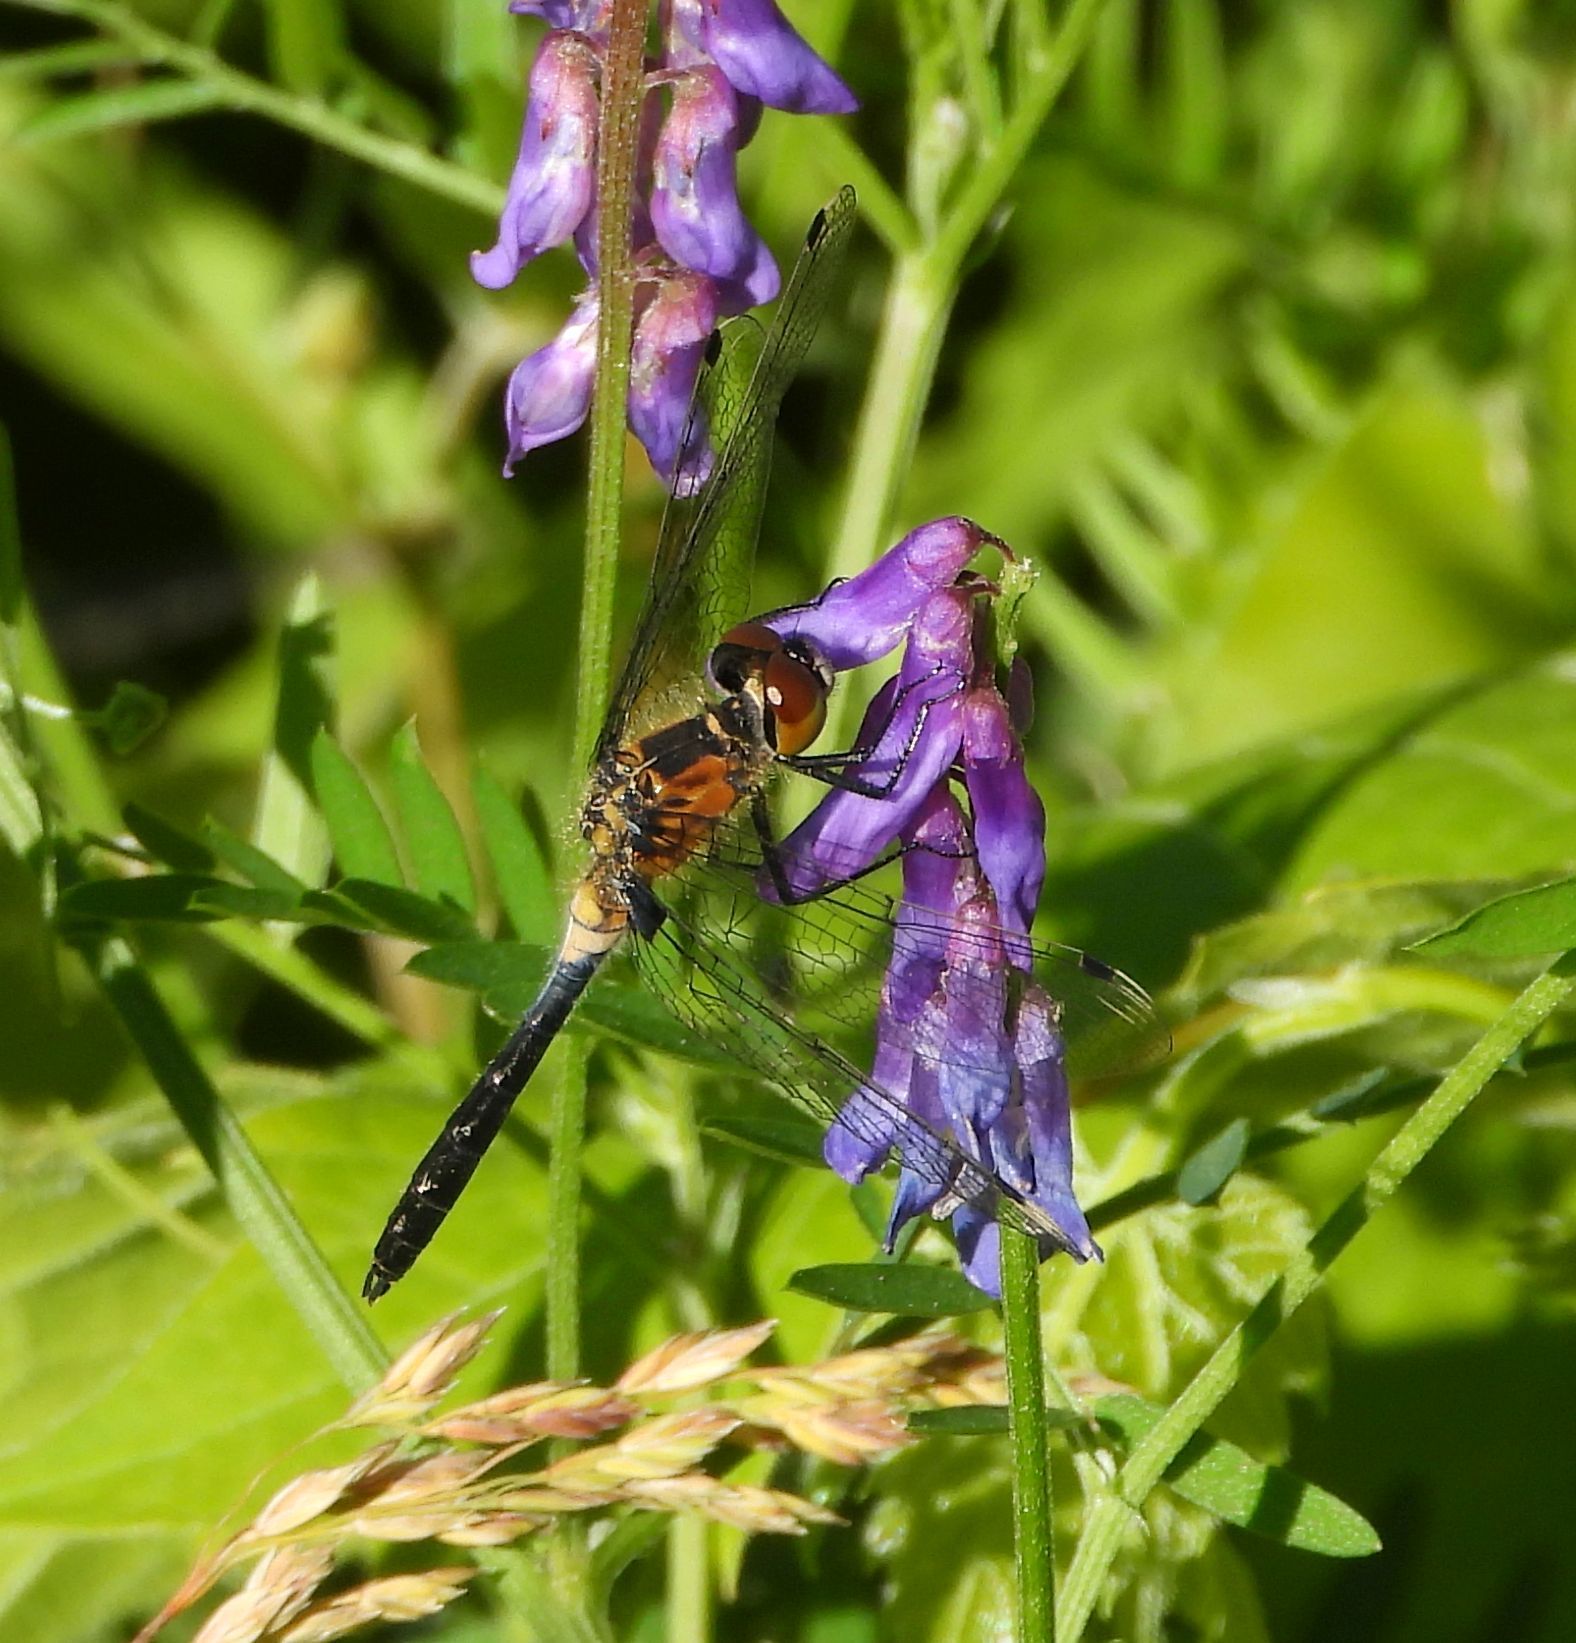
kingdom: Animalia
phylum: Arthropoda
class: Insecta
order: Odonata
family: Libellulidae
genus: Leucorrhinia
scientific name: Leucorrhinia frigida
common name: Frosted whiteface
